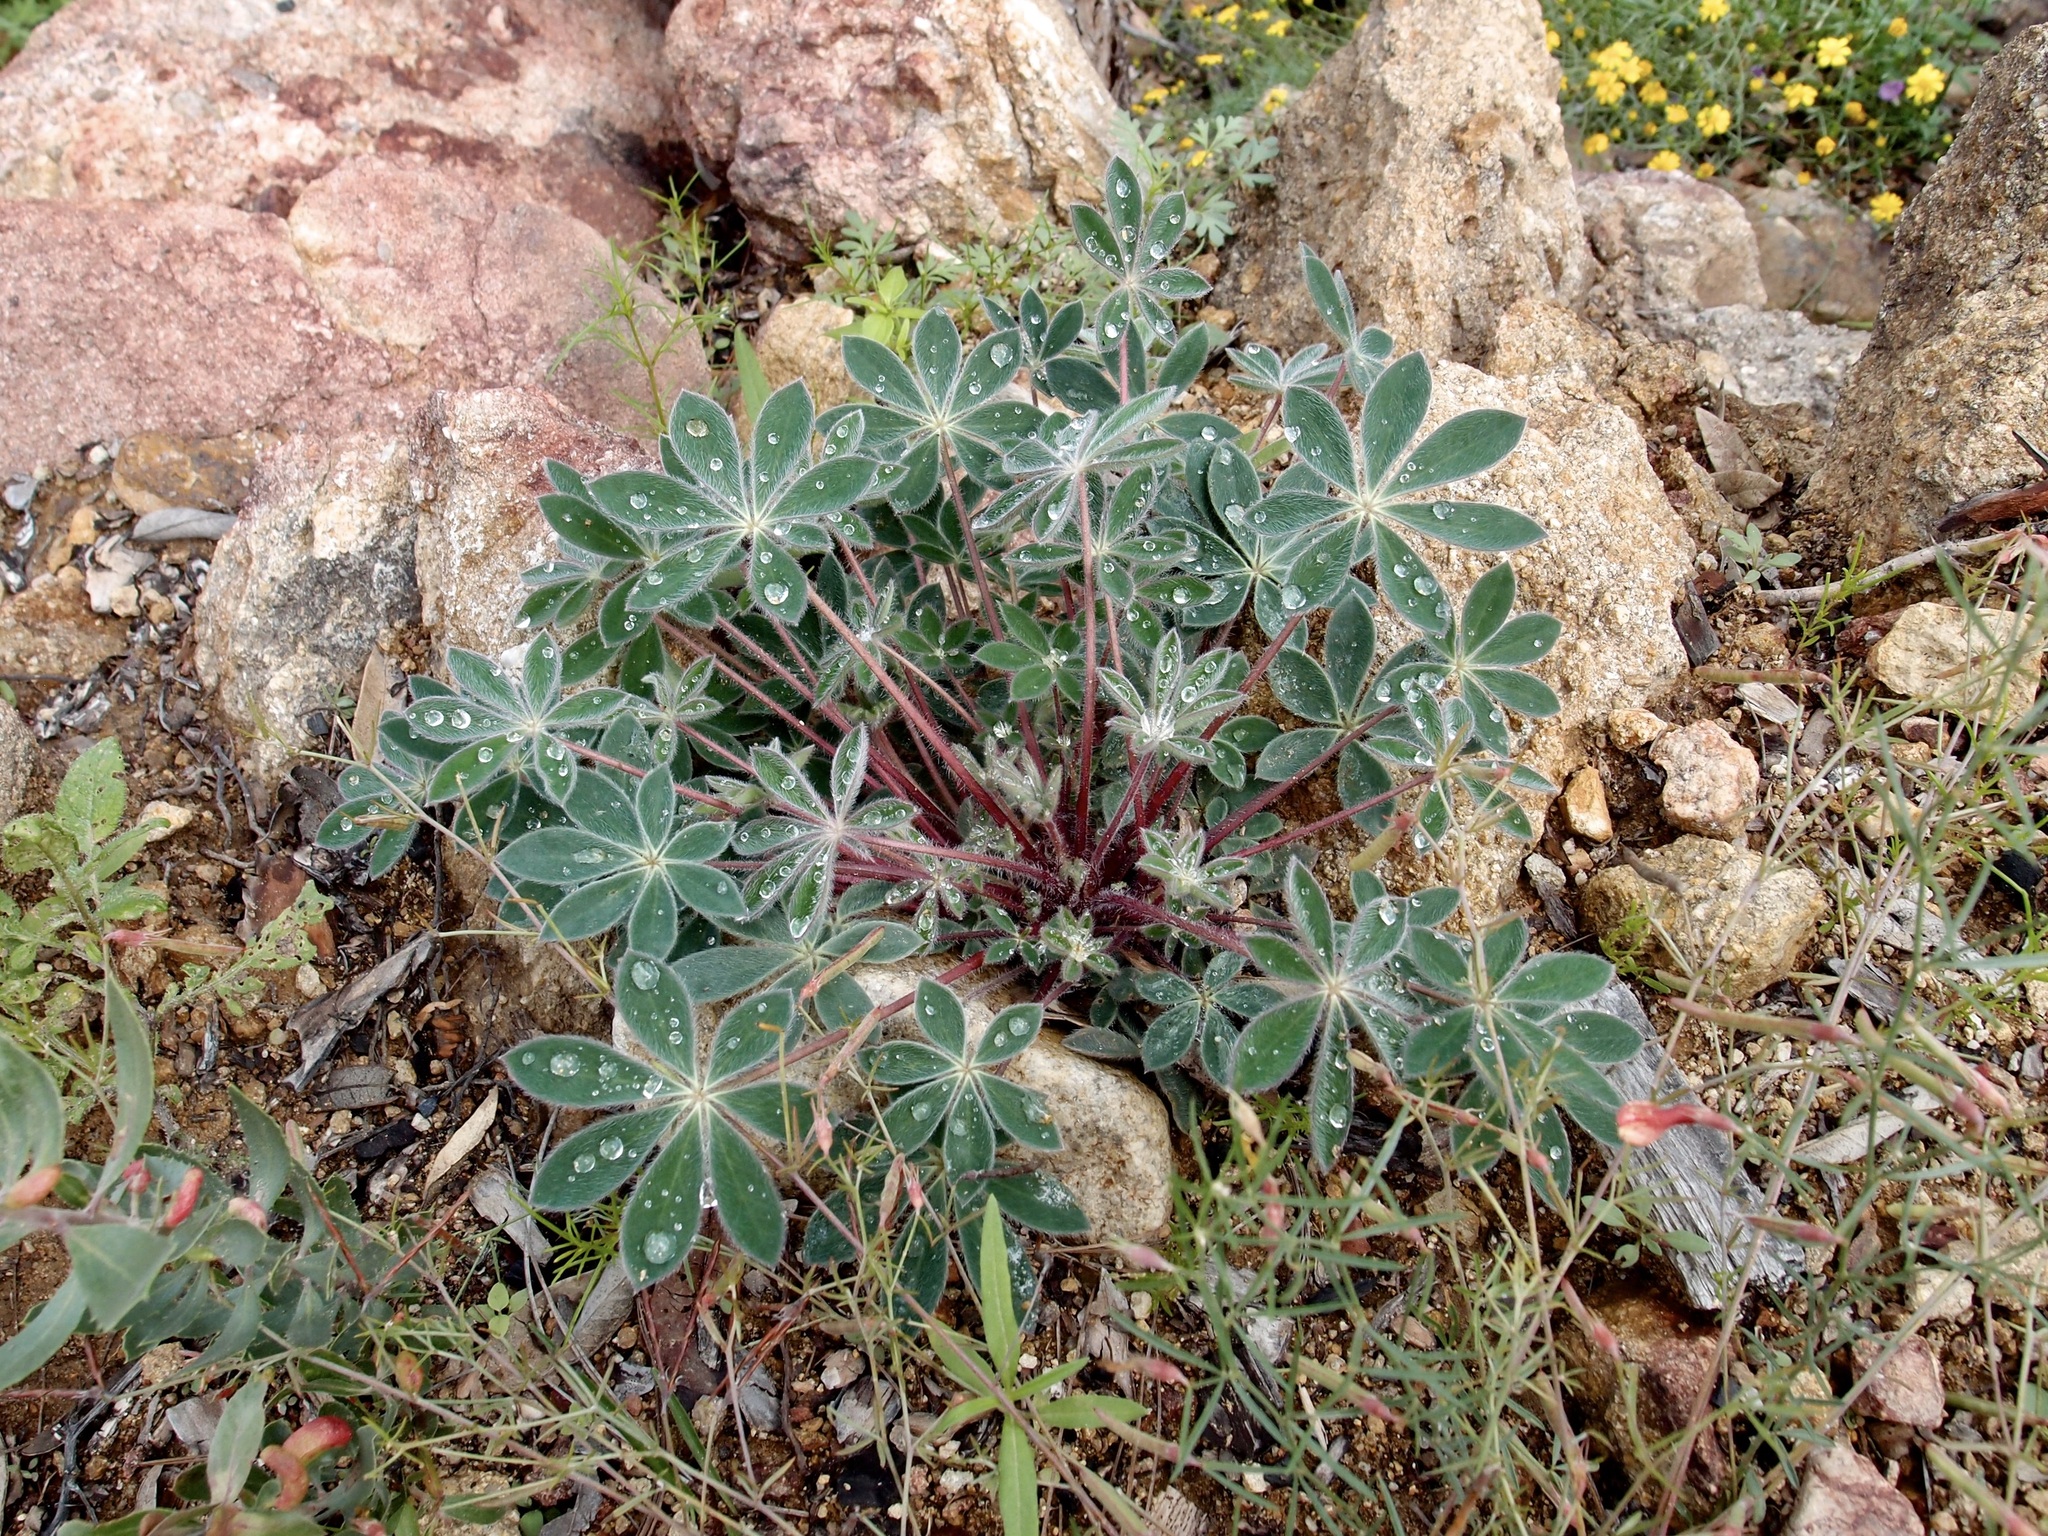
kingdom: Plantae
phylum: Tracheophyta
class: Magnoliopsida
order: Fabales
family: Fabaceae
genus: Lupinus
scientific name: Lupinus huachucanus
